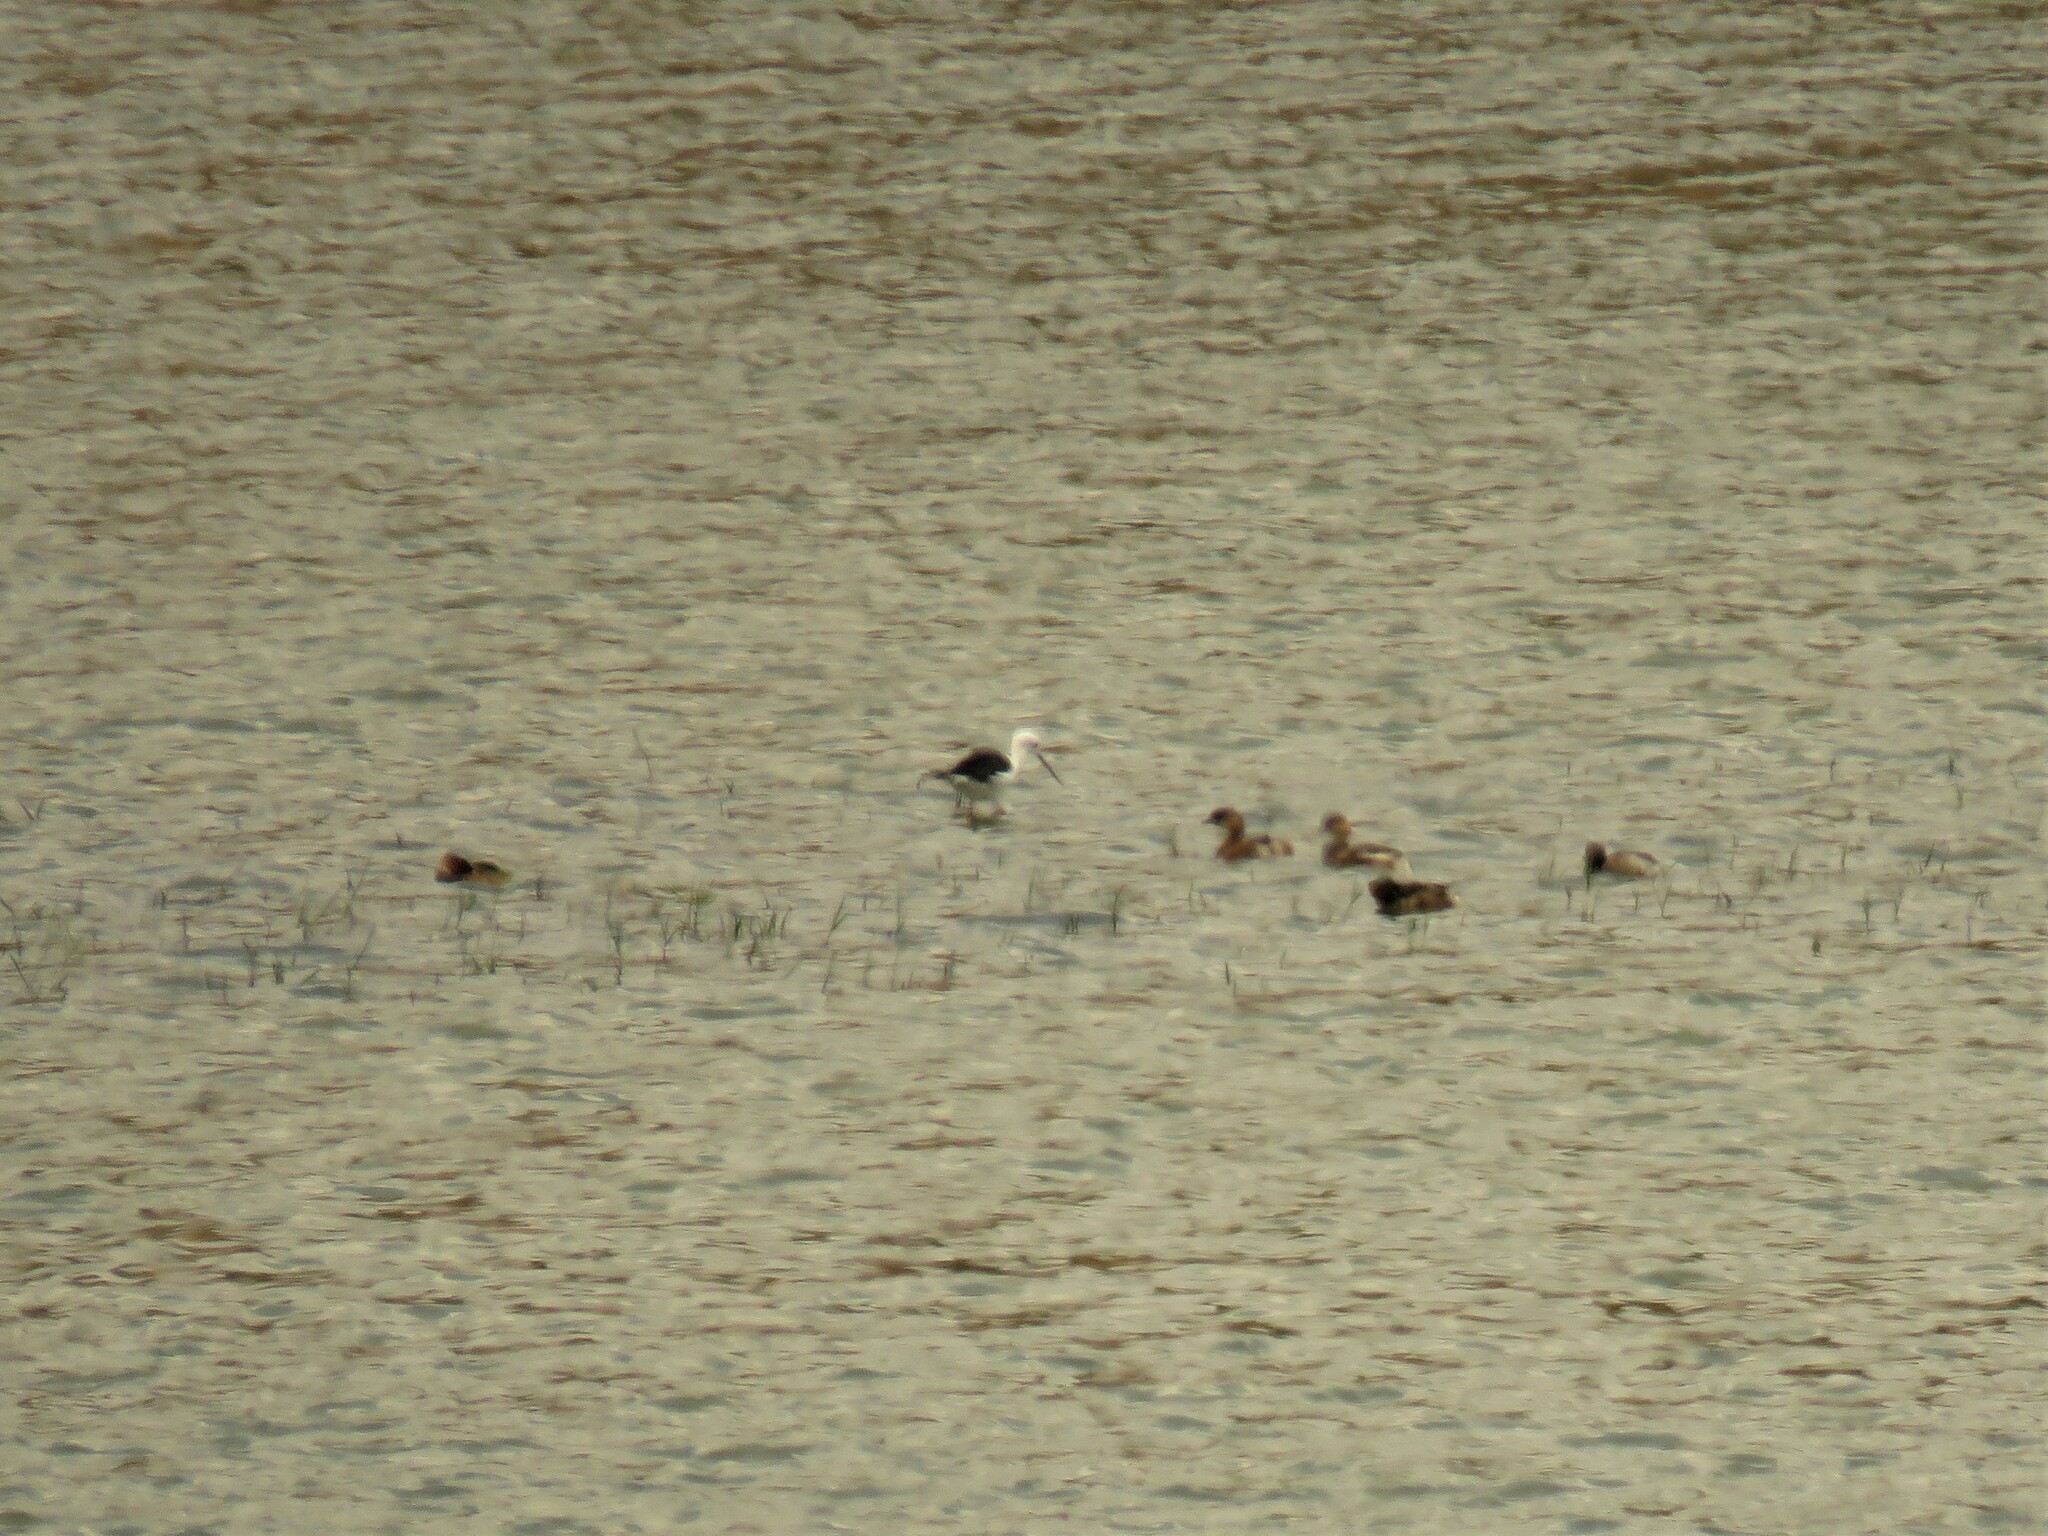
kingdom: Animalia
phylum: Chordata
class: Aves
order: Charadriiformes
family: Recurvirostridae
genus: Himantopus
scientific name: Himantopus himantopus
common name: Black-winged stilt
